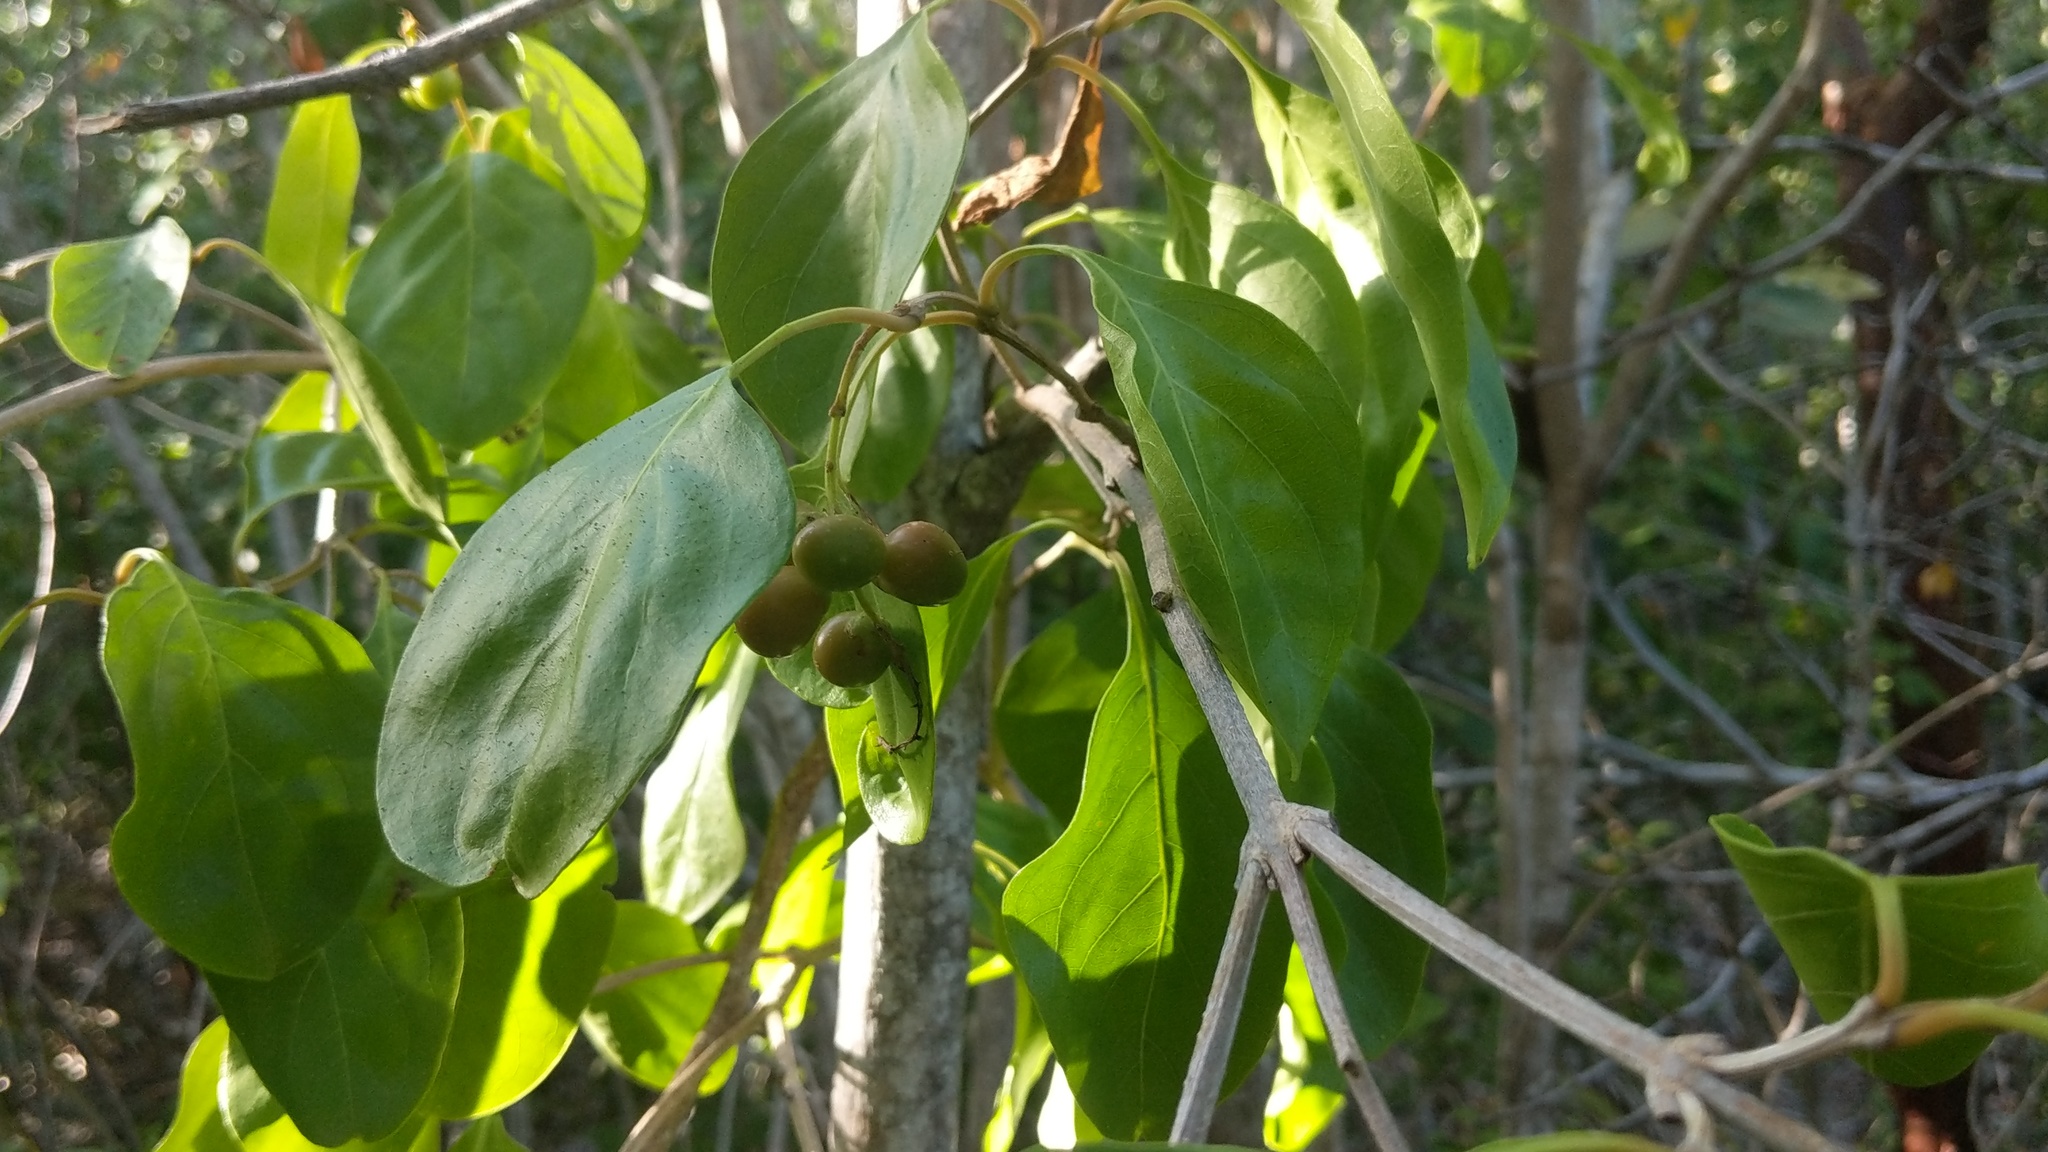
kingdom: Plantae
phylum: Tracheophyta
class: Magnoliopsida
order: Lamiales
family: Verbenaceae
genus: Citharexylum
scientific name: Citharexylum spinosum
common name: Fiddlewood
